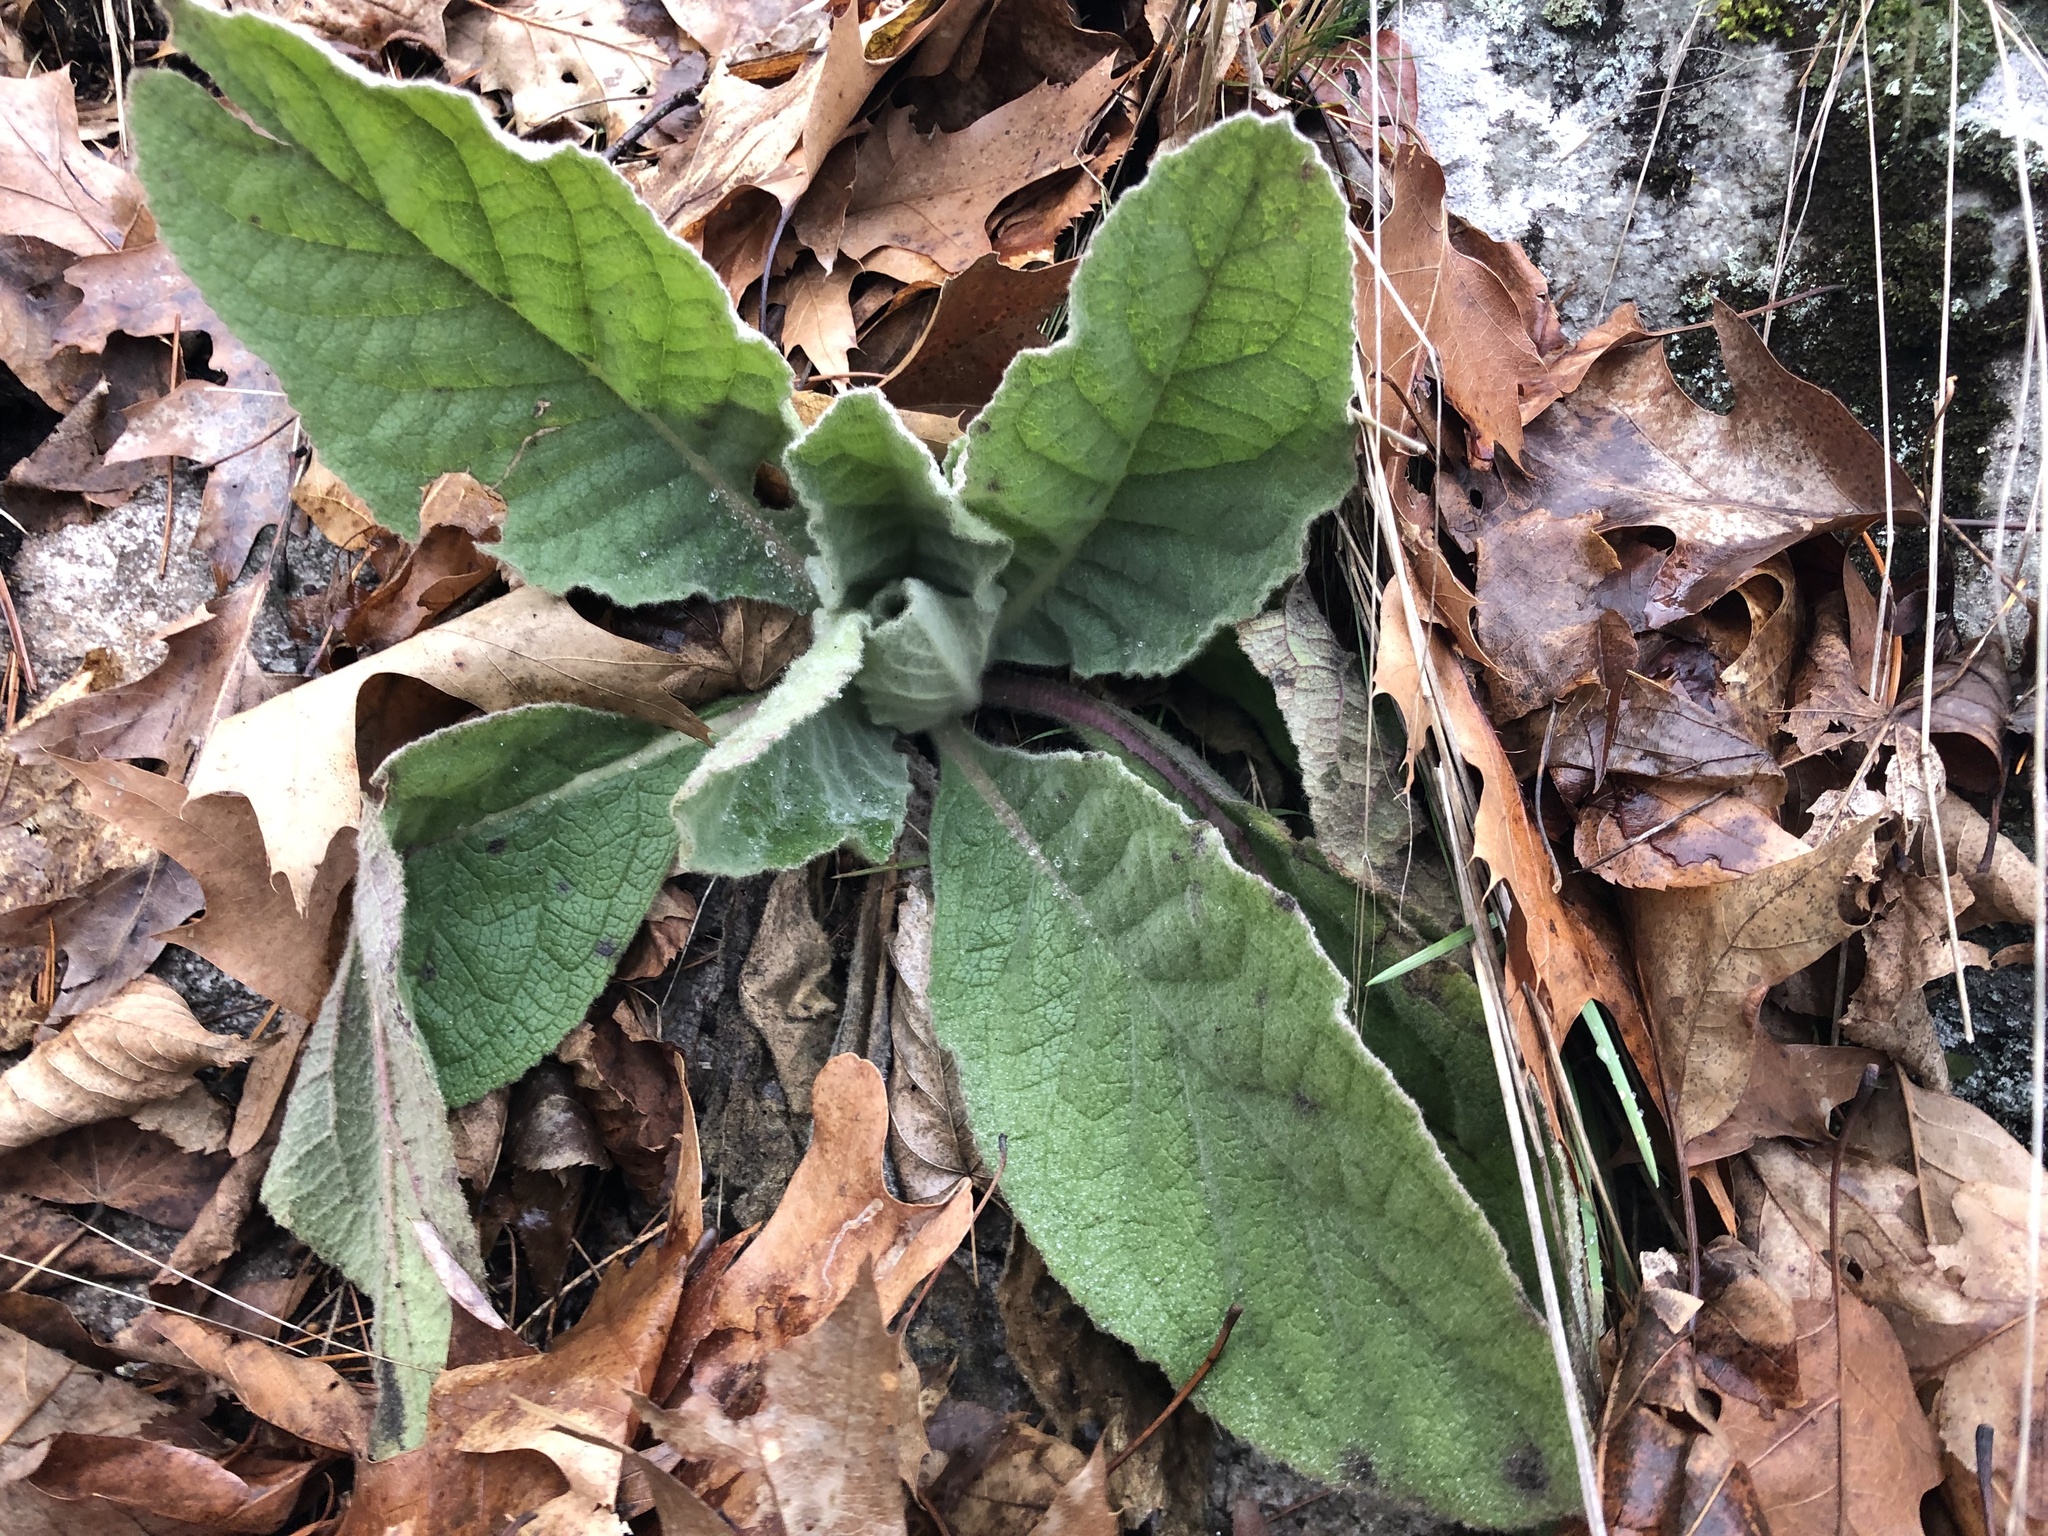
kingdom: Plantae
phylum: Tracheophyta
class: Magnoliopsida
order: Lamiales
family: Scrophulariaceae
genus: Verbascum
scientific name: Verbascum thapsus
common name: Common mullein
